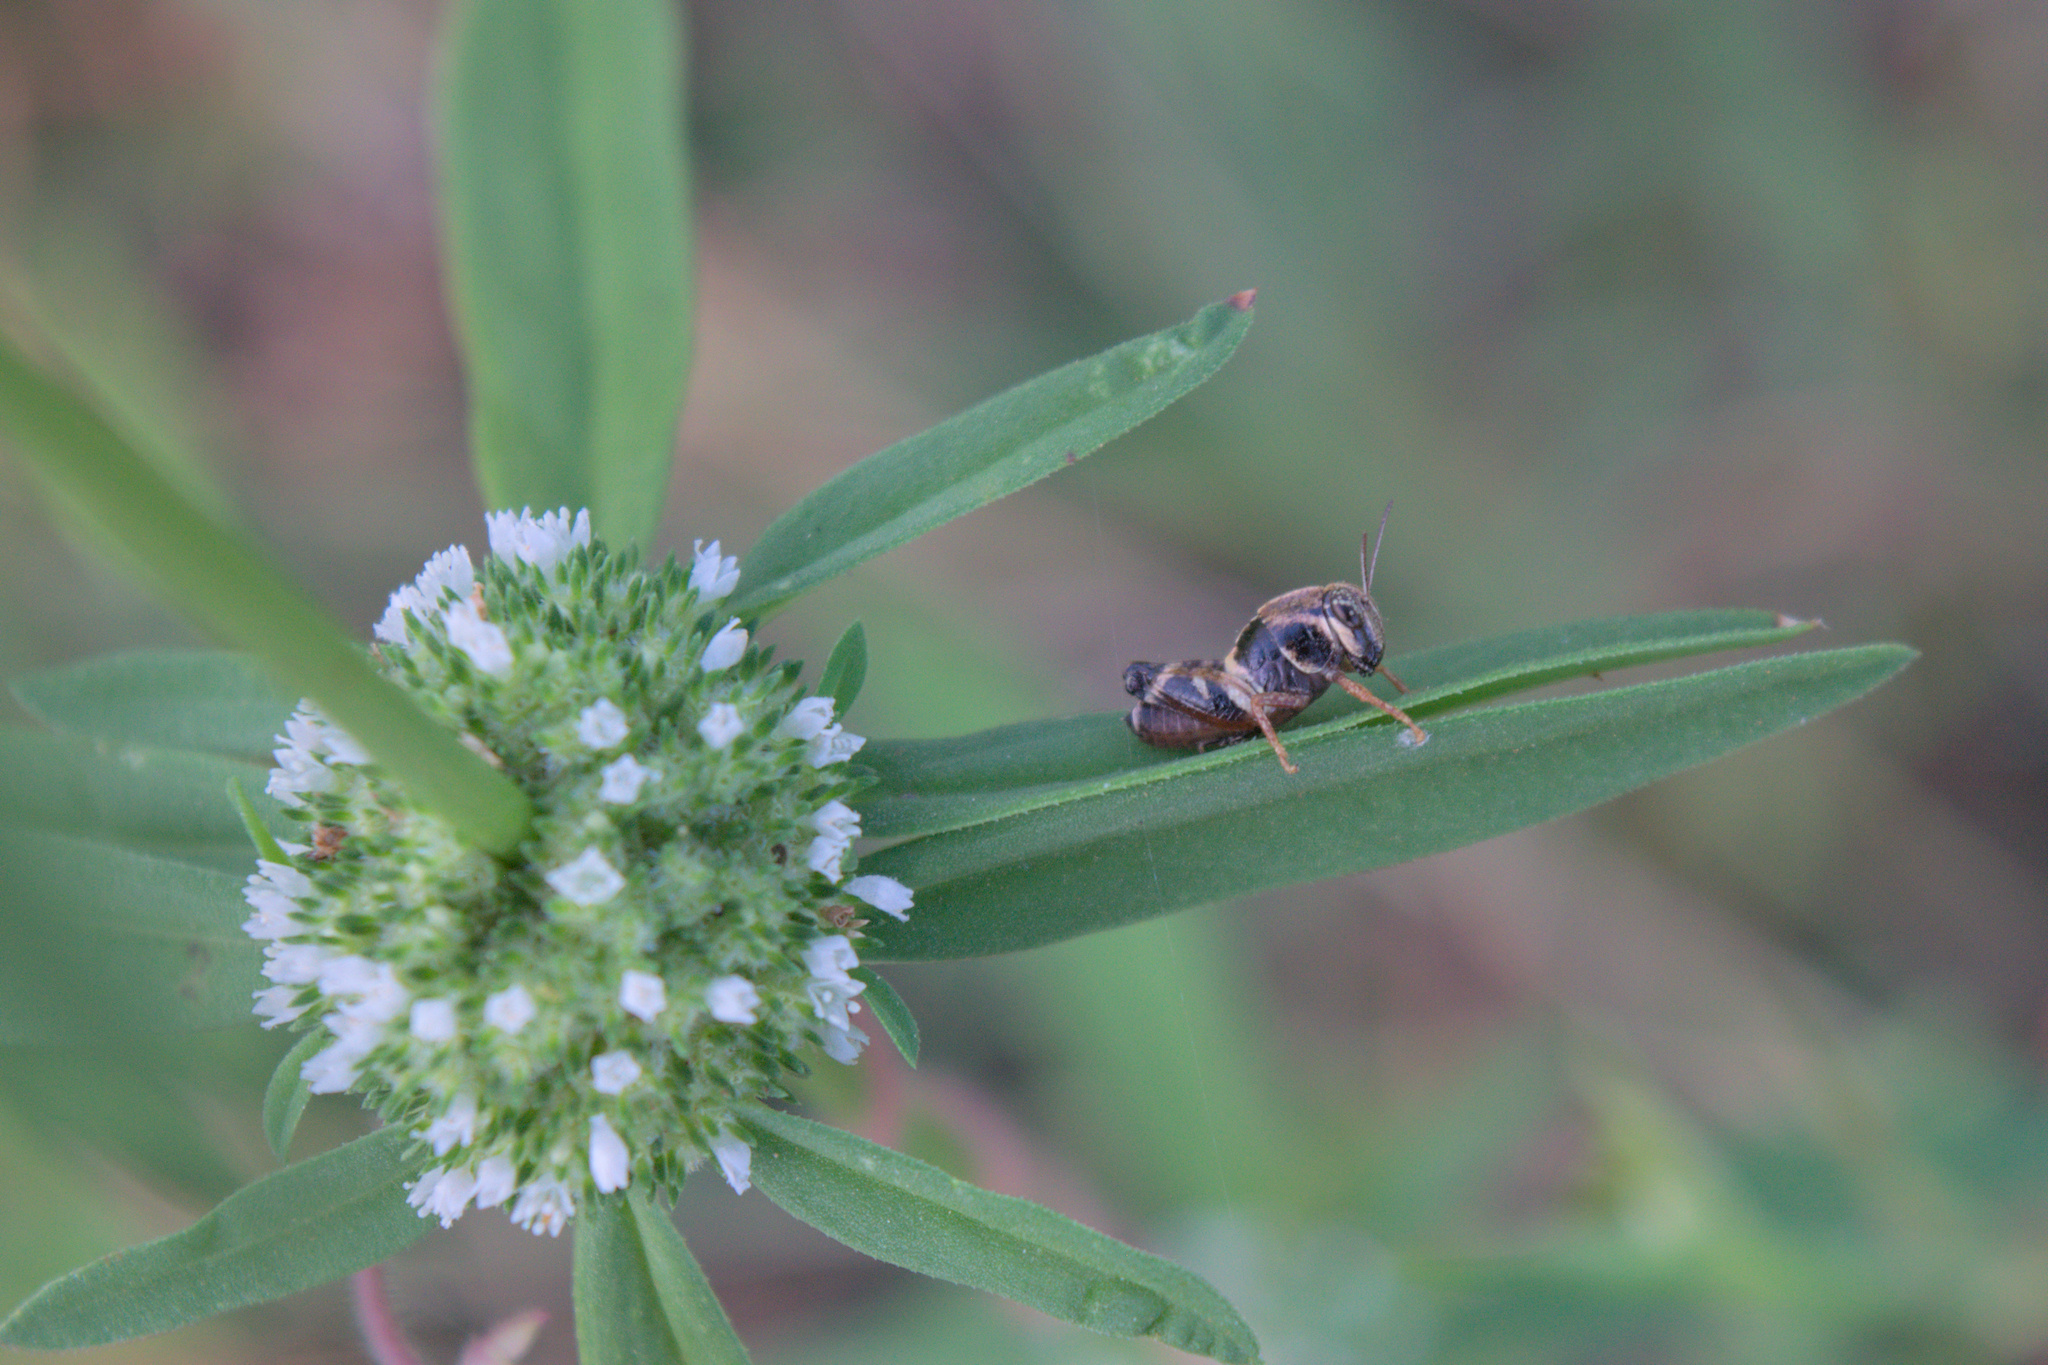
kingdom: Animalia
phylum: Arthropoda
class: Insecta
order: Orthoptera
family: Acrididae
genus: Aidemona
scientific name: Aidemona azteca
